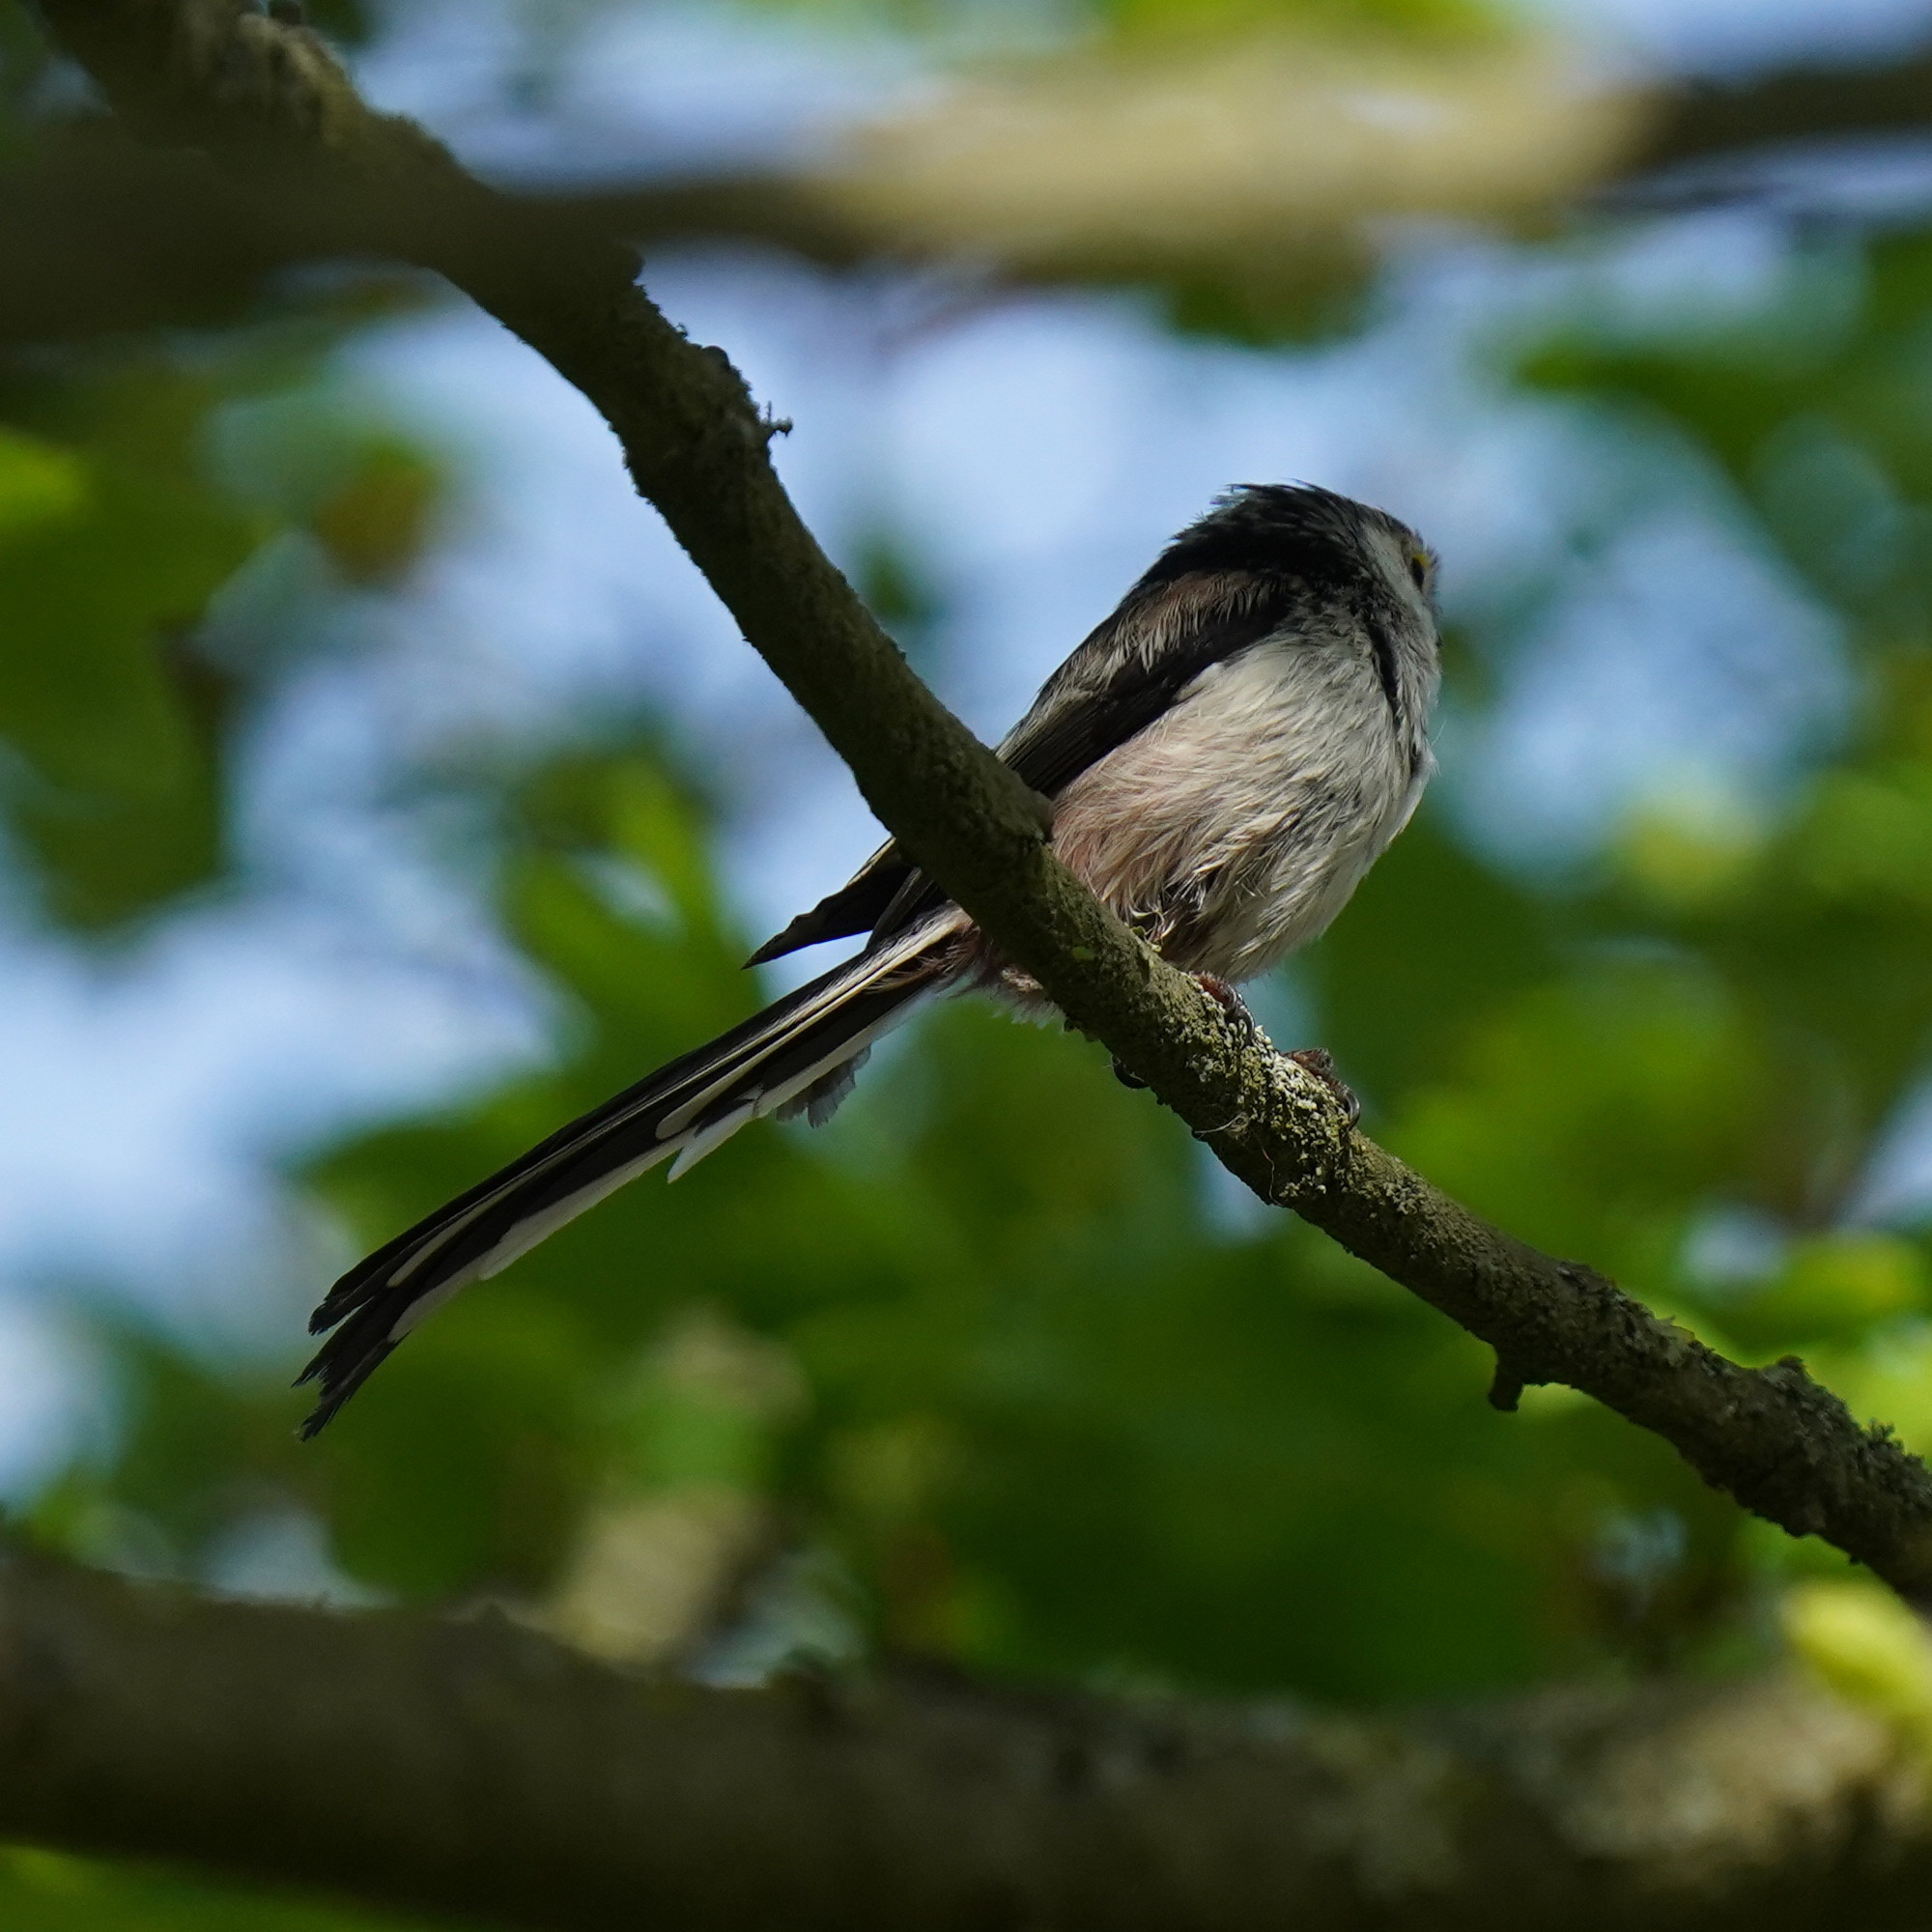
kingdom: Animalia
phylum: Chordata
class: Aves
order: Passeriformes
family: Aegithalidae
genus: Aegithalos
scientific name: Aegithalos caudatus
